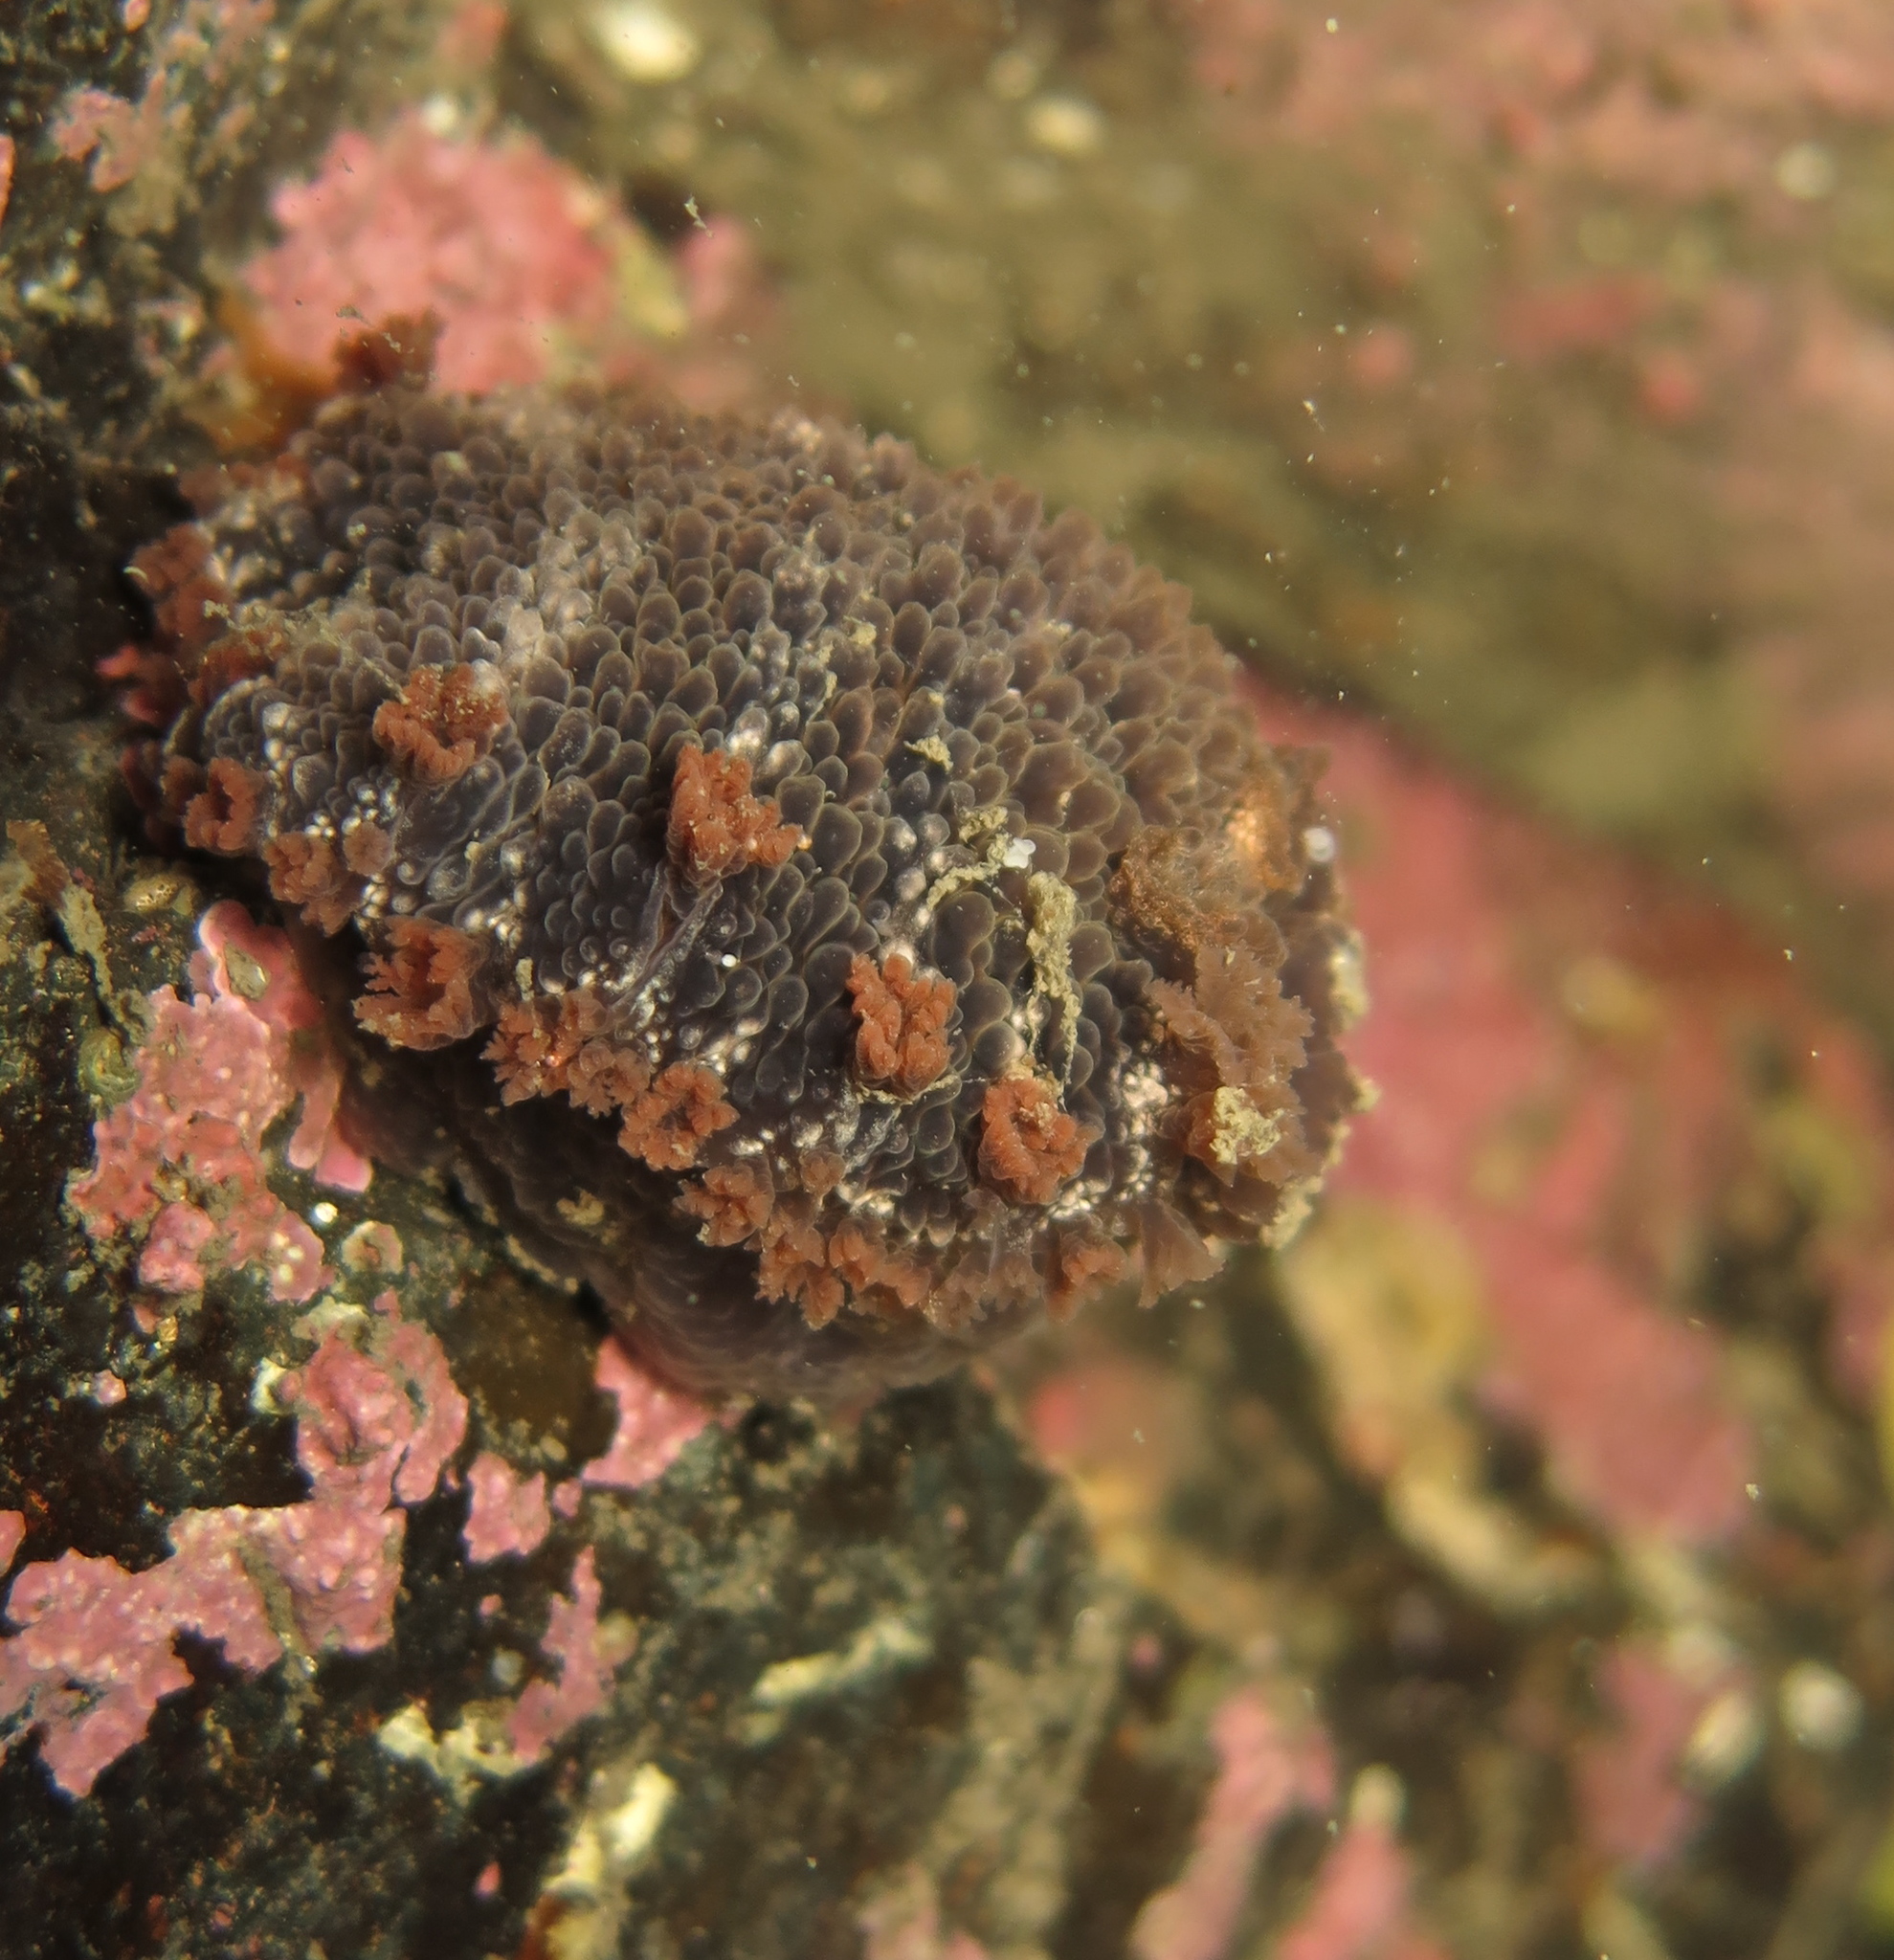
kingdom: Animalia
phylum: Mollusca
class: Gastropoda
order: Nudibranchia
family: Tritoniidae
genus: Tritonia
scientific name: Tritonia hombergii
